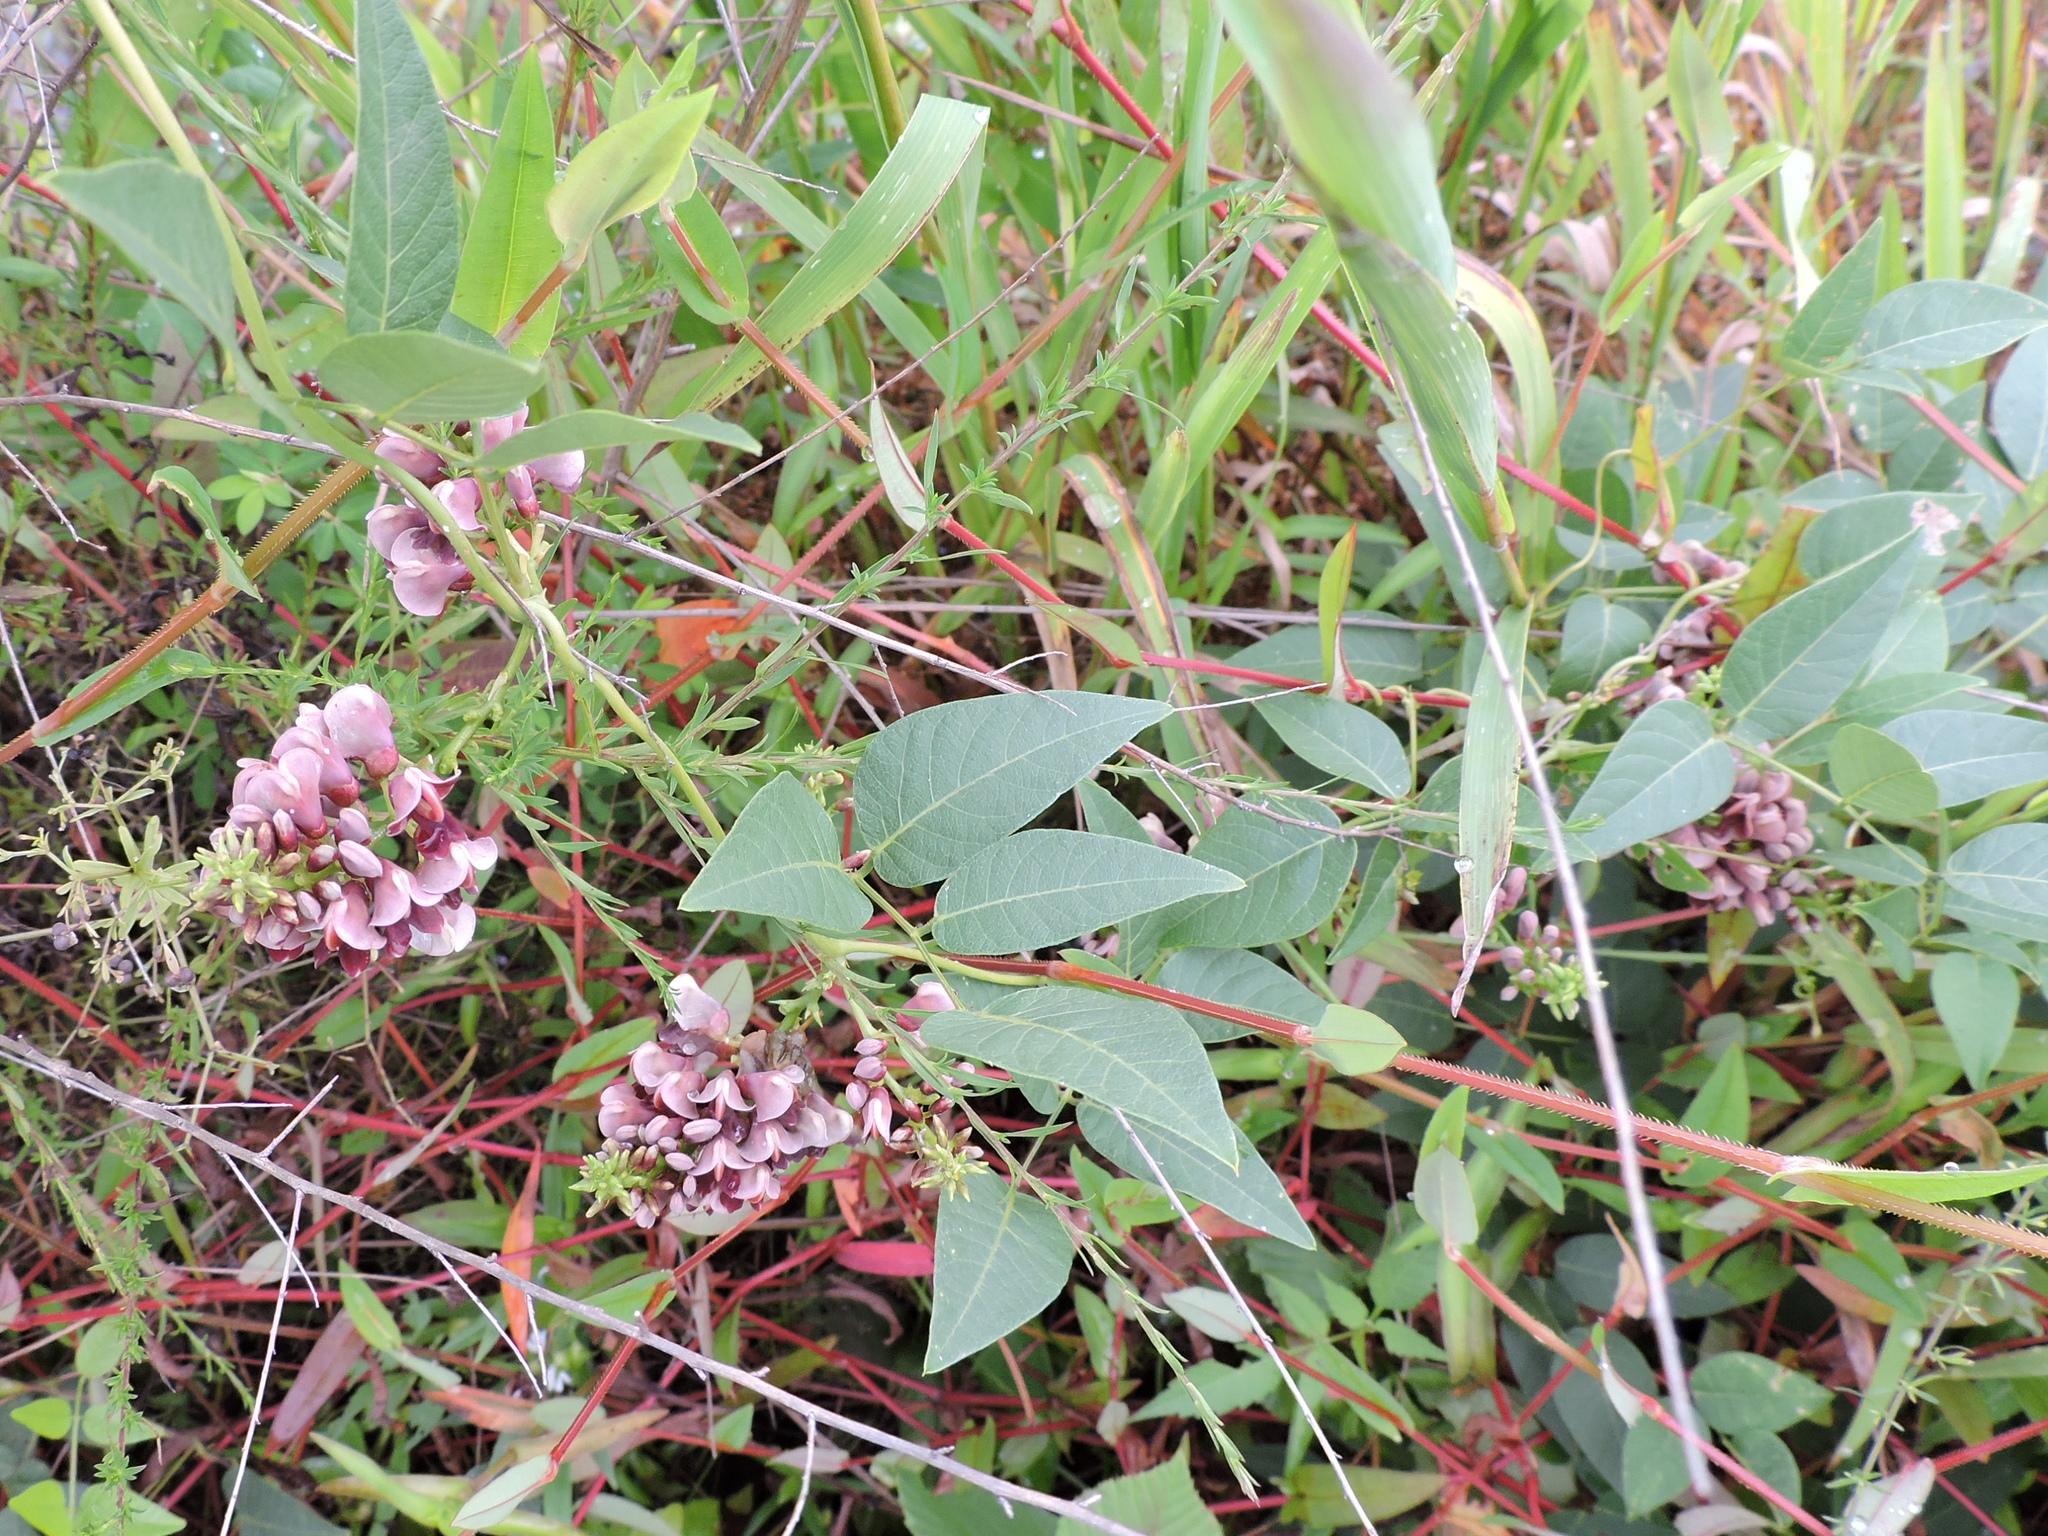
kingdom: Plantae
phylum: Tracheophyta
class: Magnoliopsida
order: Fabales
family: Fabaceae
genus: Apios
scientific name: Apios americana
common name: American potato-bean
